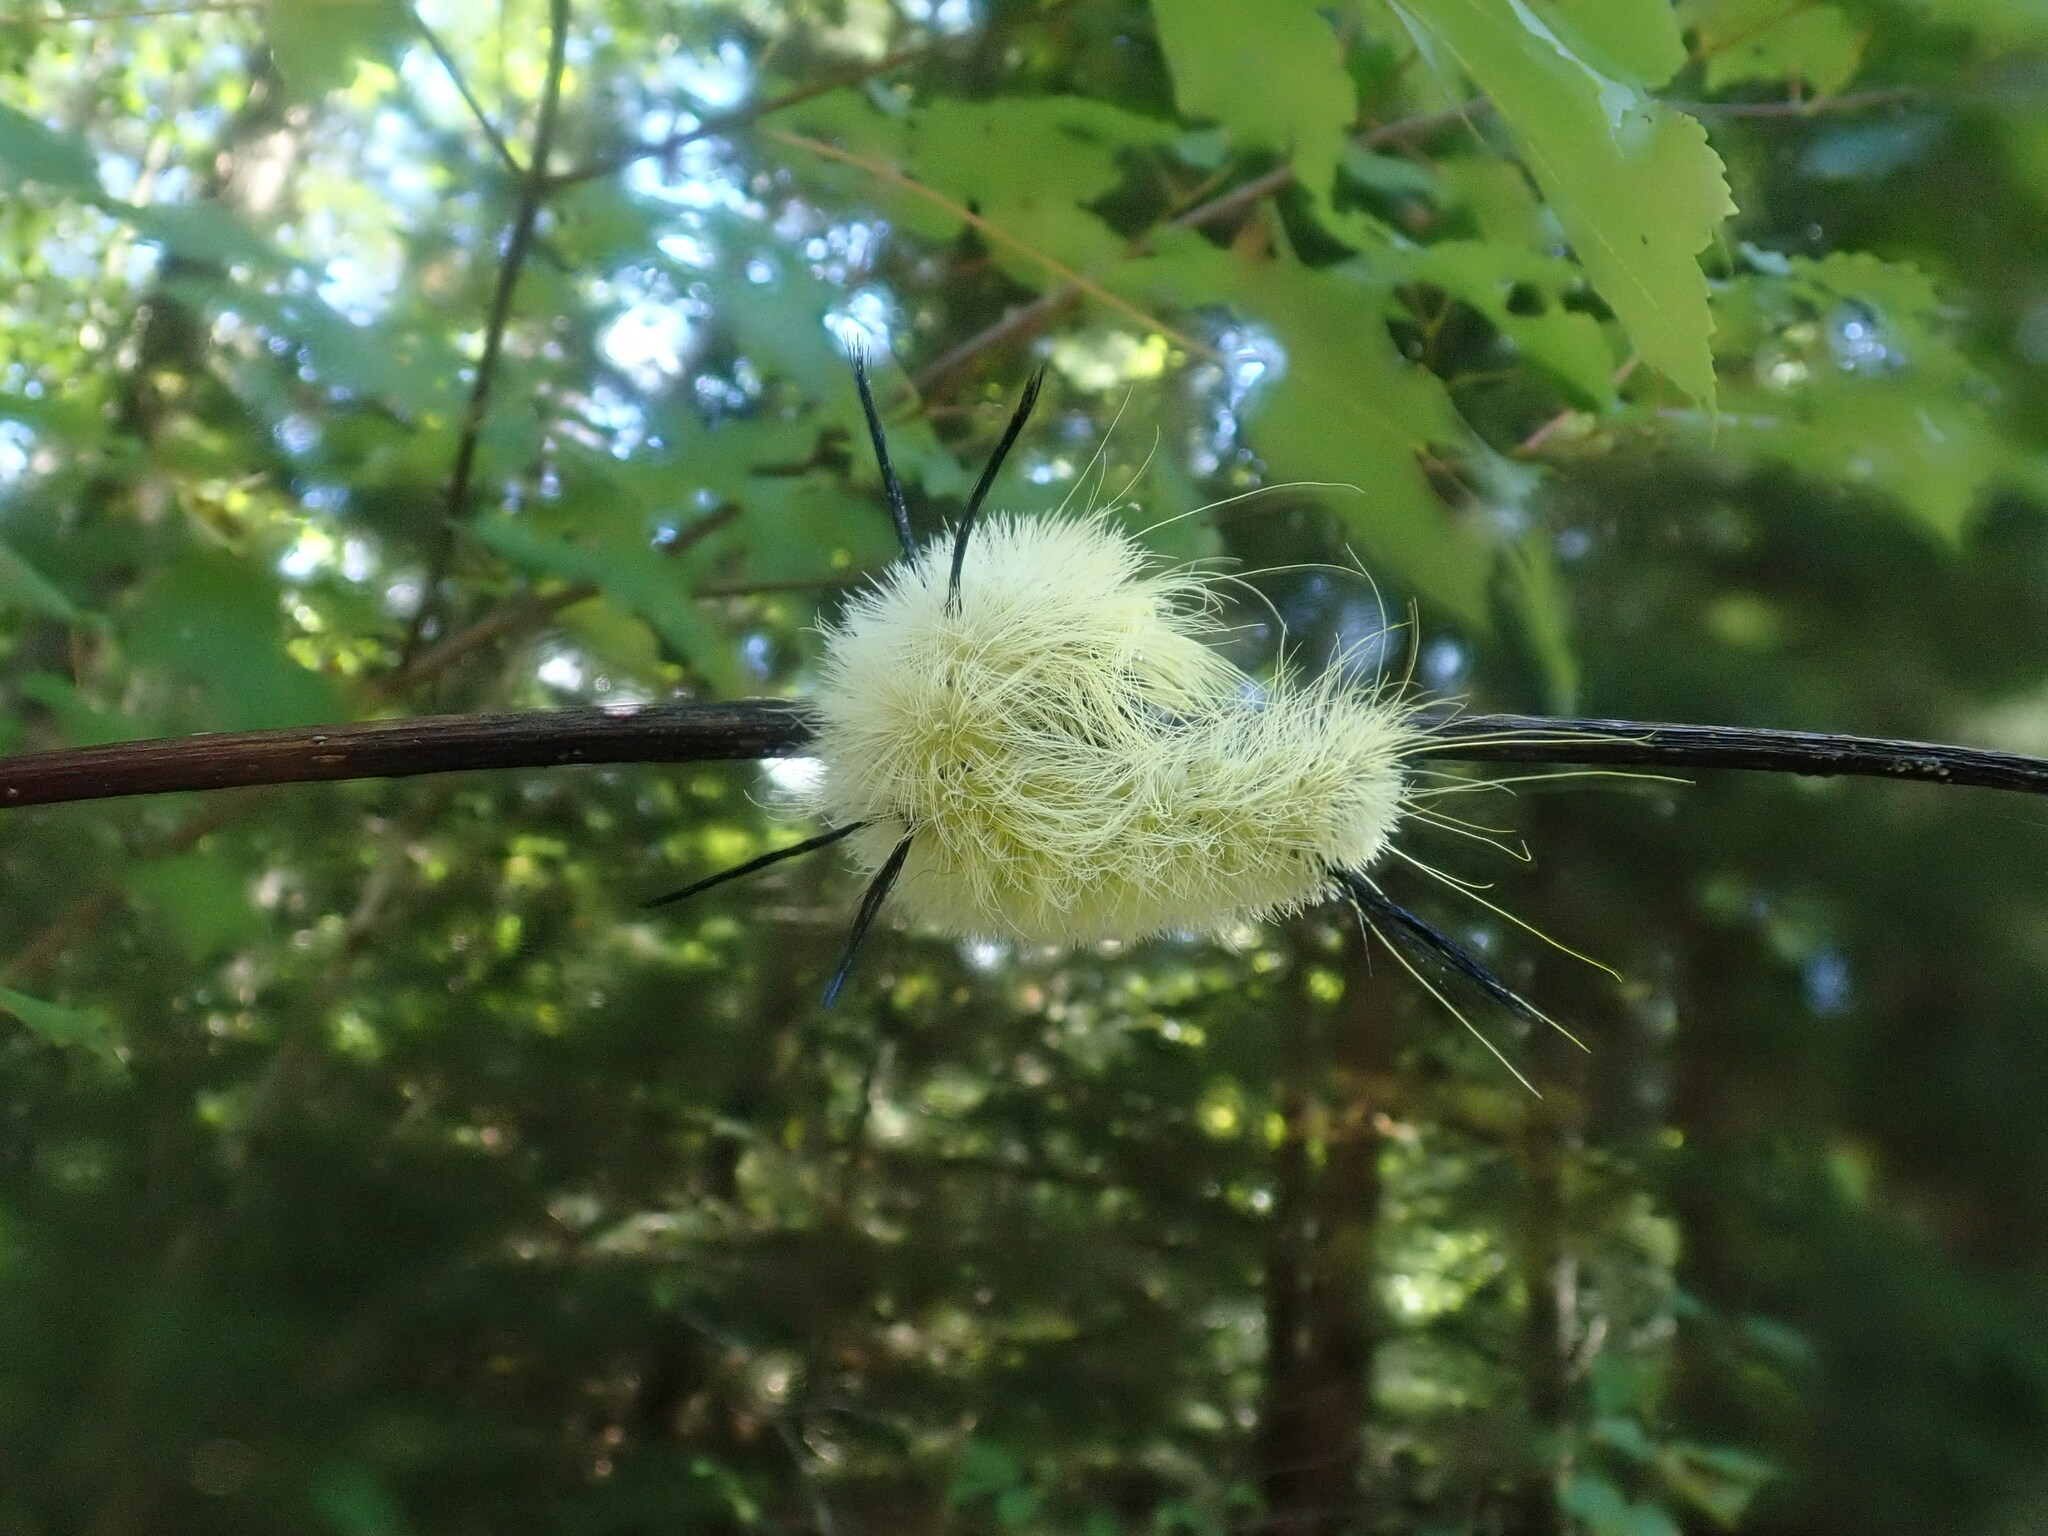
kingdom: Animalia
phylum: Arthropoda
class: Insecta
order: Lepidoptera
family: Noctuidae
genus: Acronicta
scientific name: Acronicta americana
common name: American dagger
